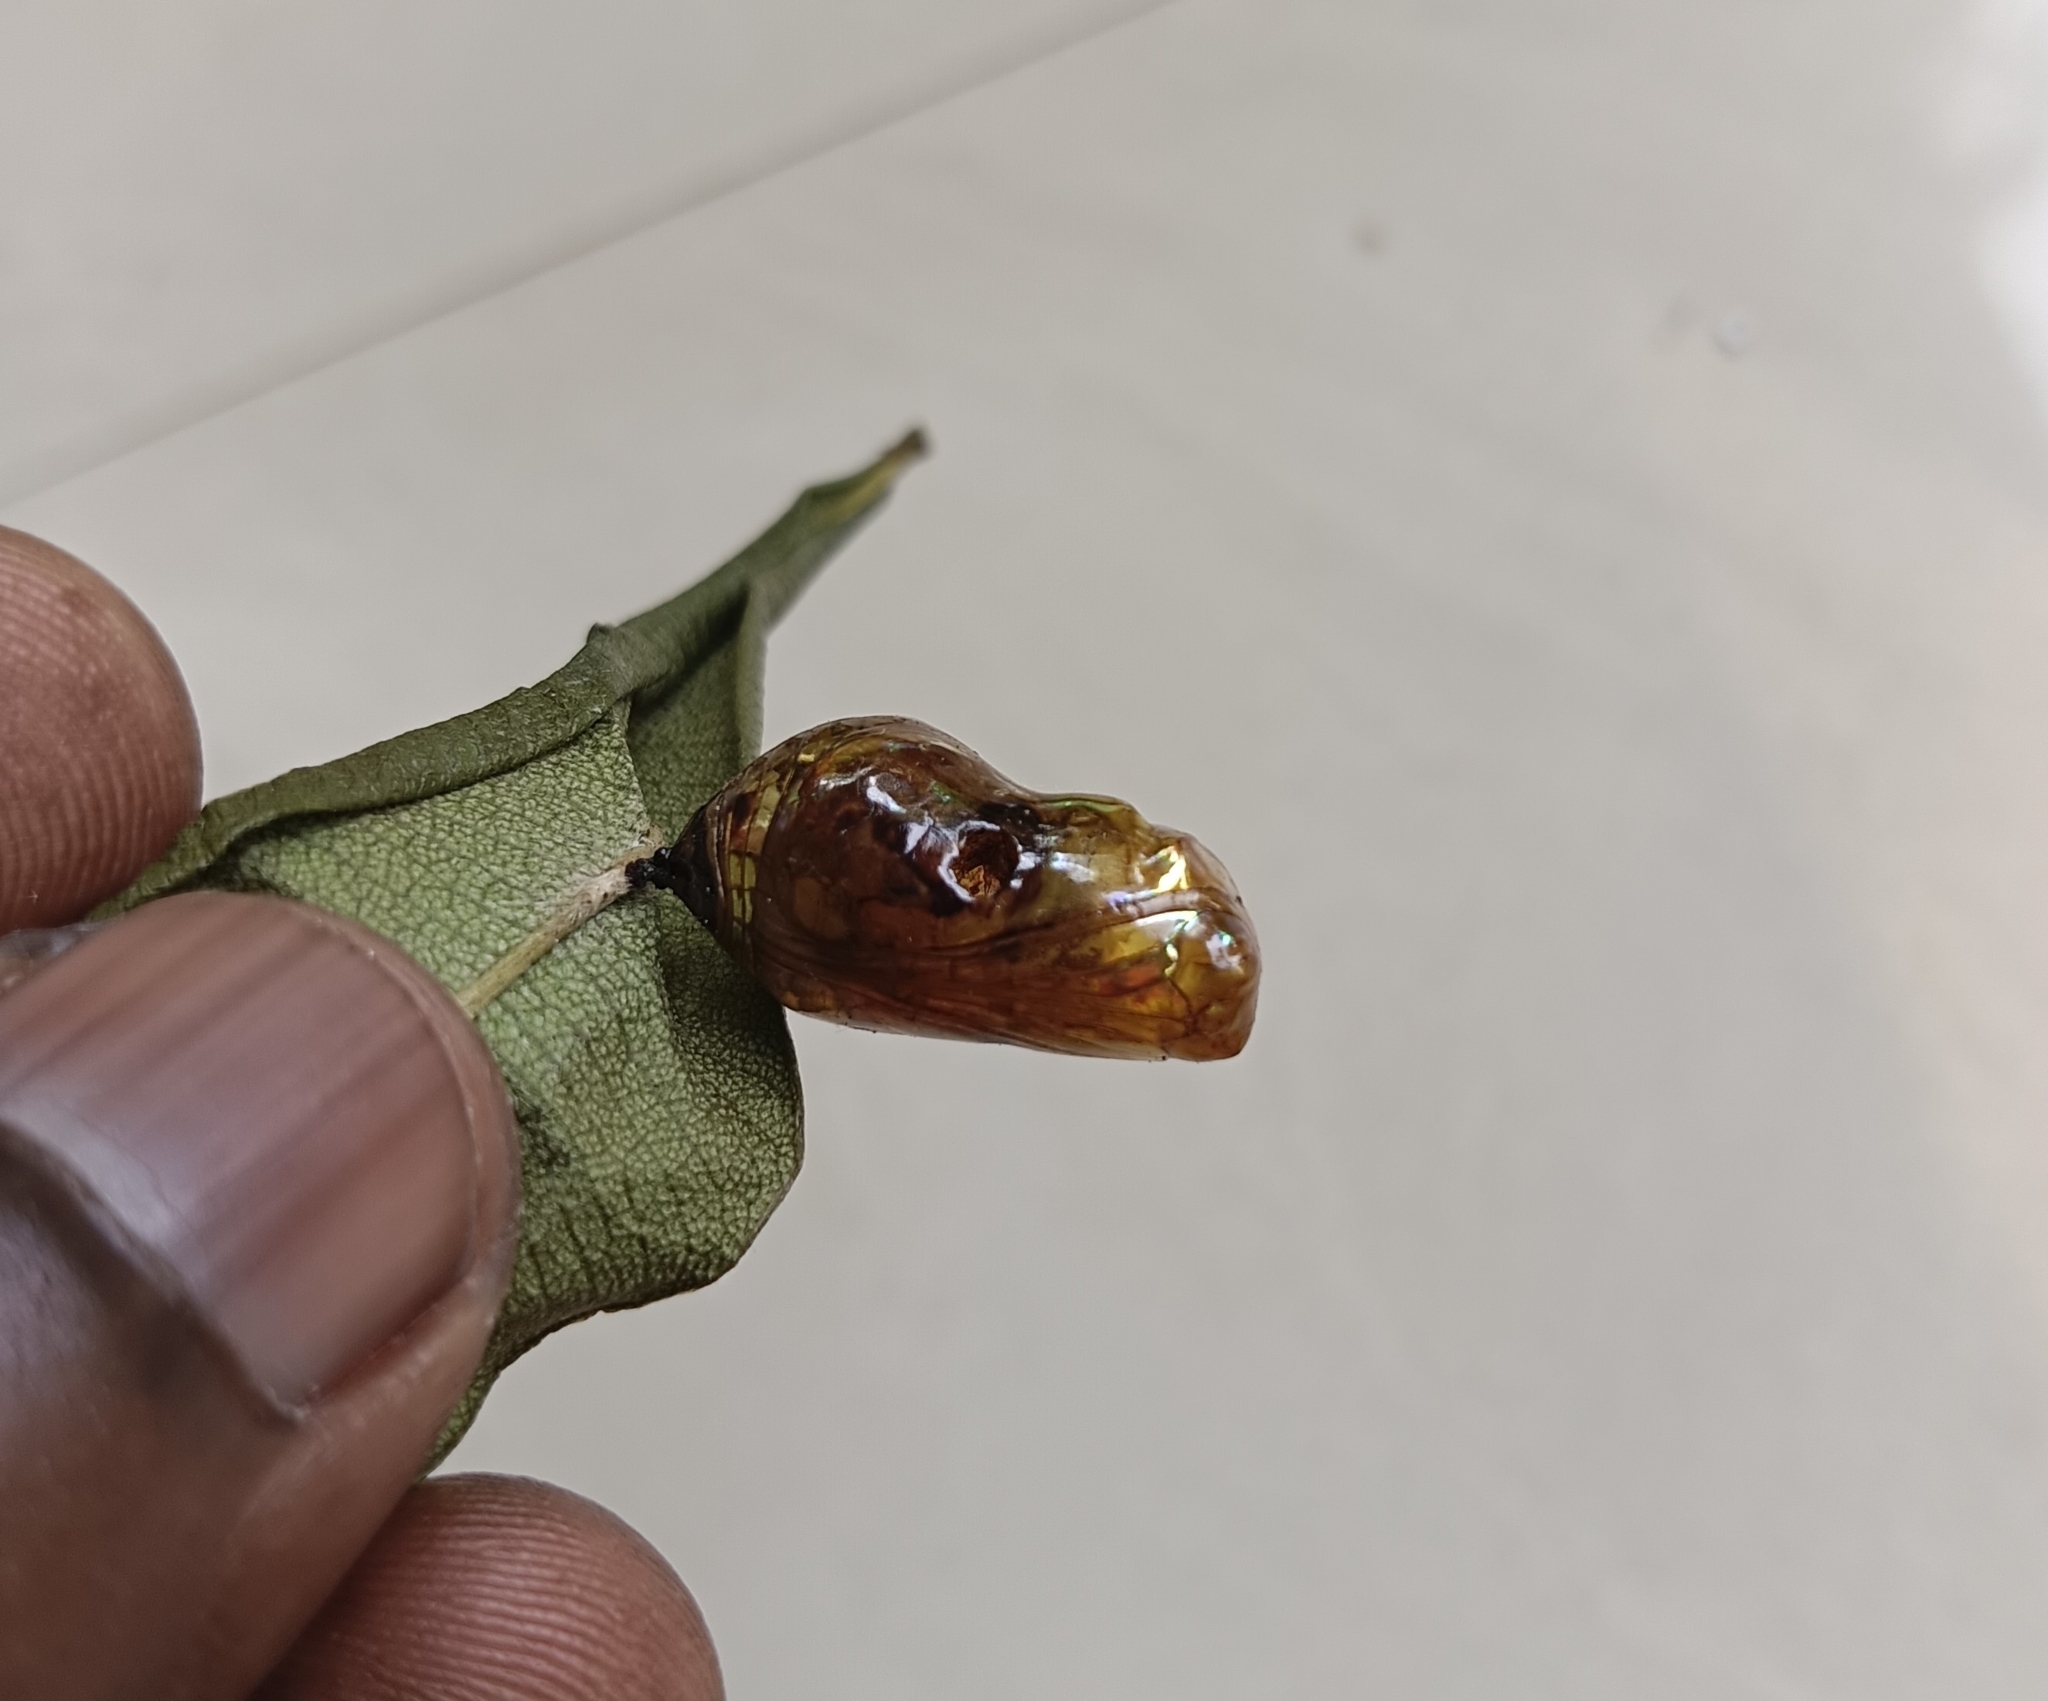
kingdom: Animalia
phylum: Arthropoda
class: Insecta
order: Lepidoptera
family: Nymphalidae
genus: Euploea
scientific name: Euploea core
